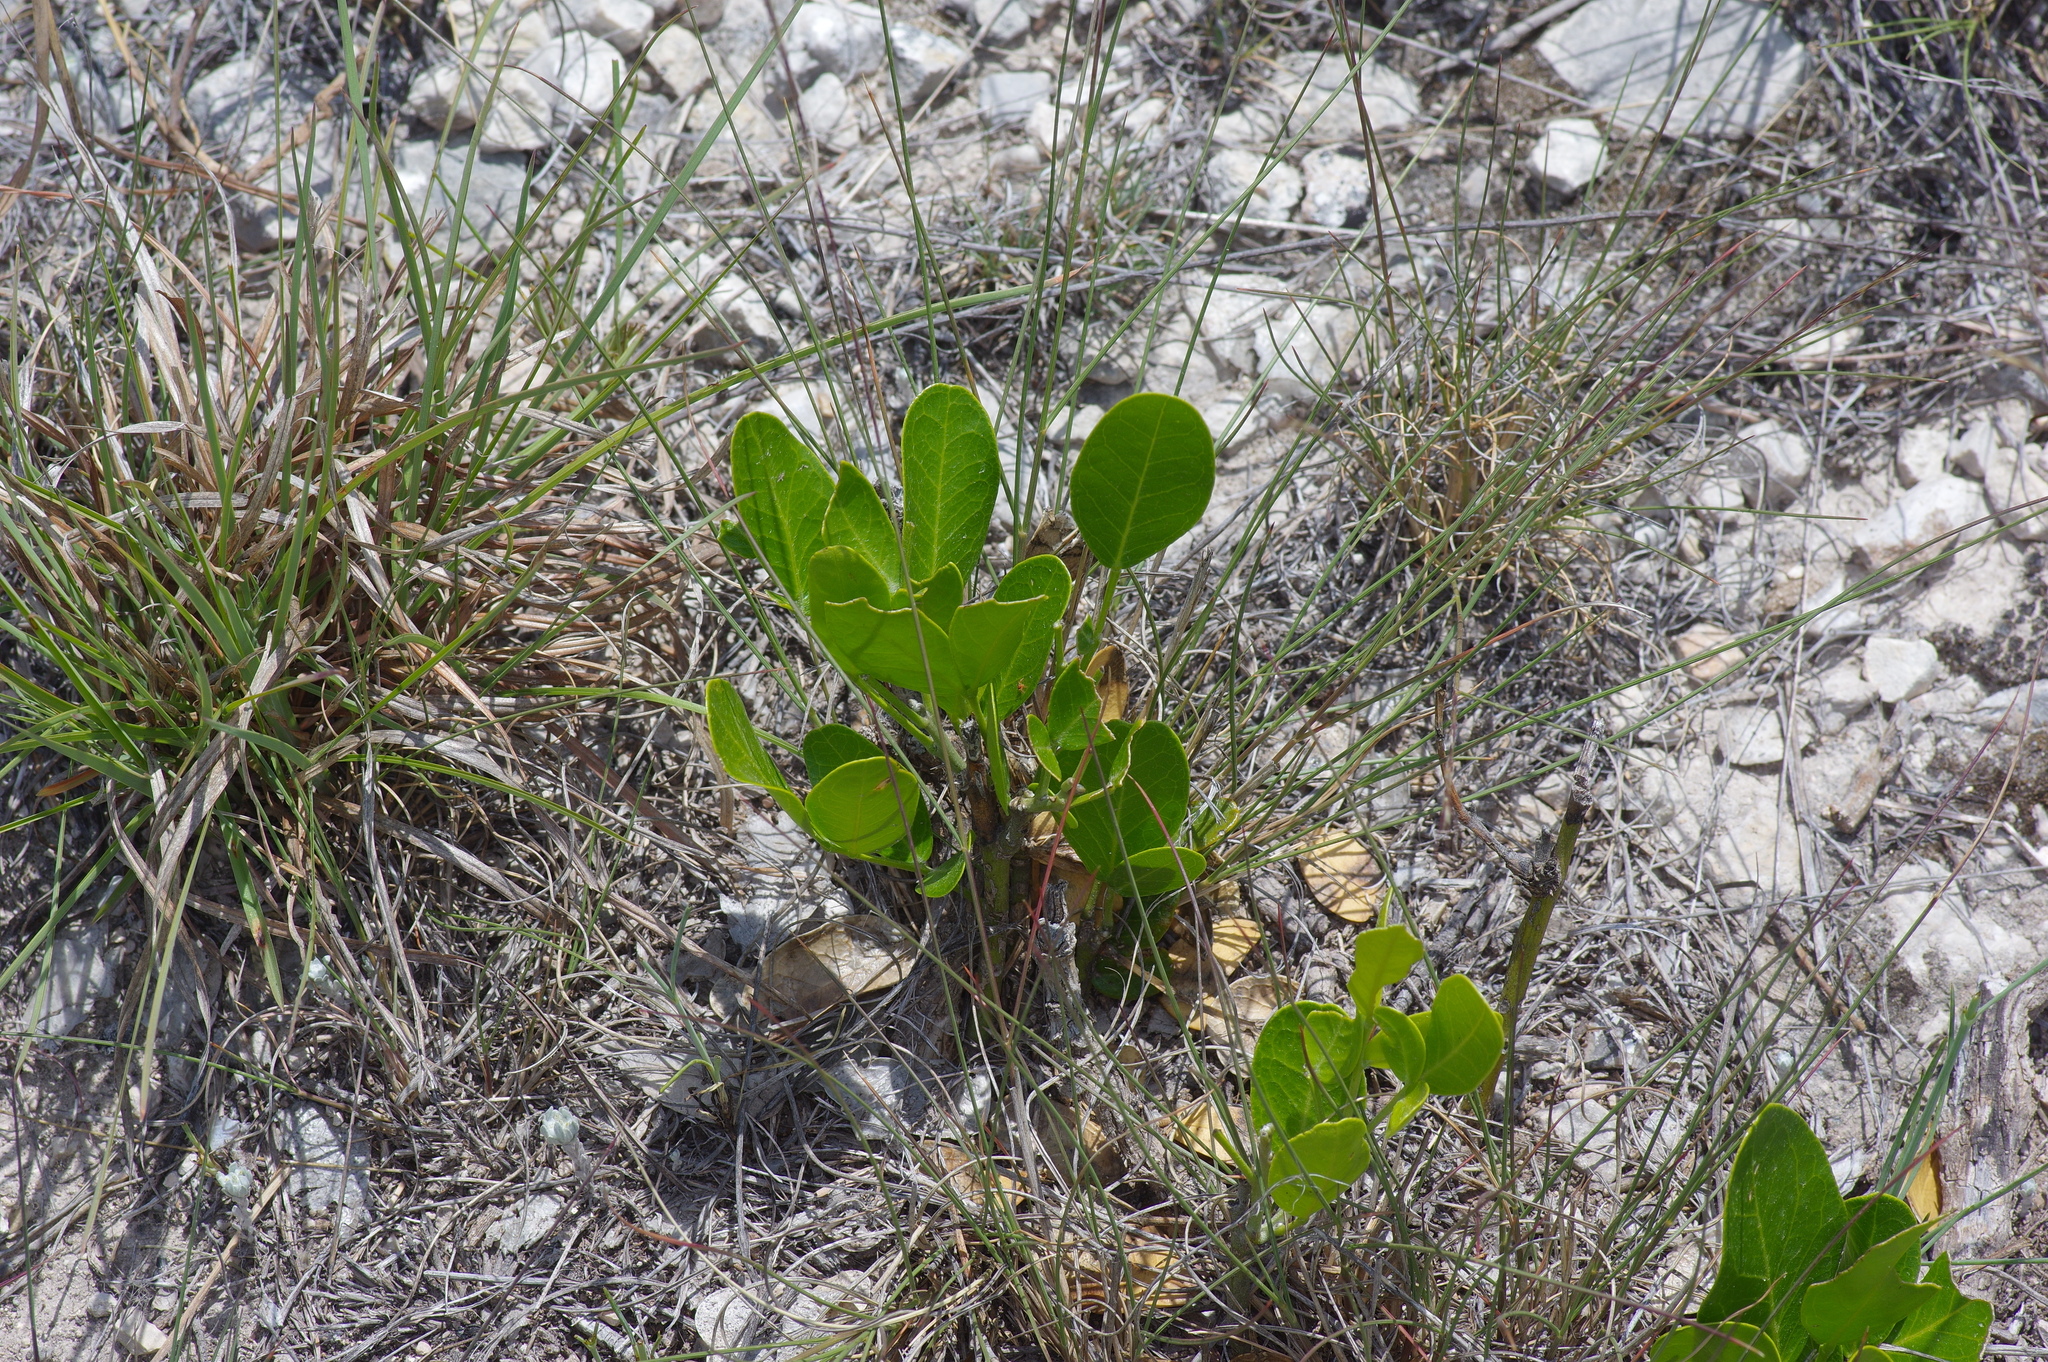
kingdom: Plantae
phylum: Tracheophyta
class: Magnoliopsida
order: Fabales
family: Fabaceae
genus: Dermatophyllum
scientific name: Dermatophyllum secundiflorum
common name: Texas-mountain-laurel
